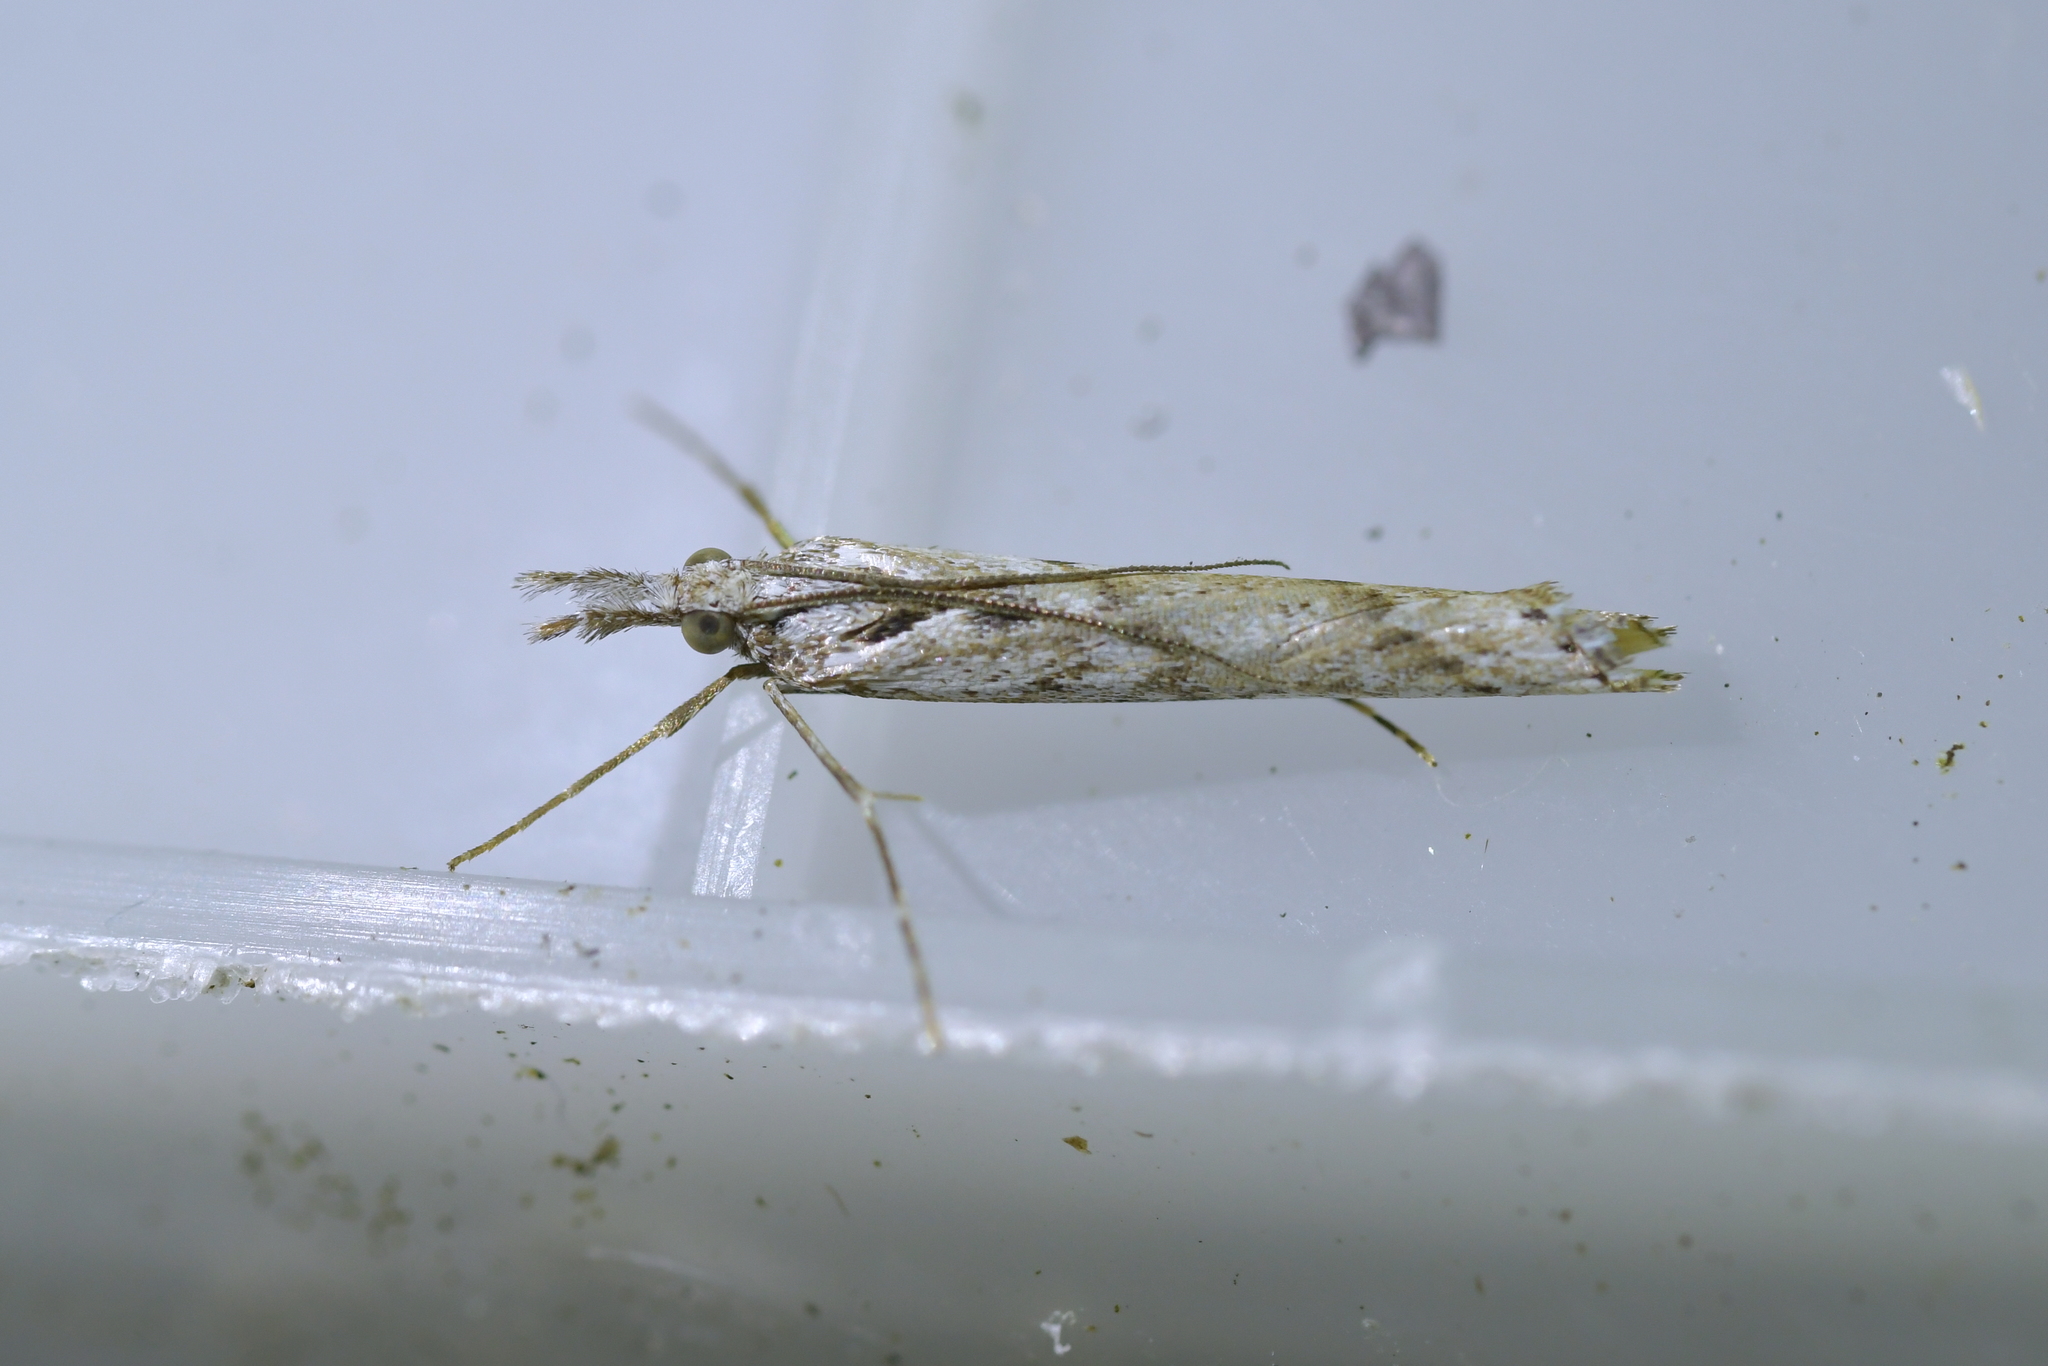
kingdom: Animalia
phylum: Arthropoda
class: Insecta
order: Lepidoptera
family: Crambidae
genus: Orocrambus
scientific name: Orocrambus cyclopicus
